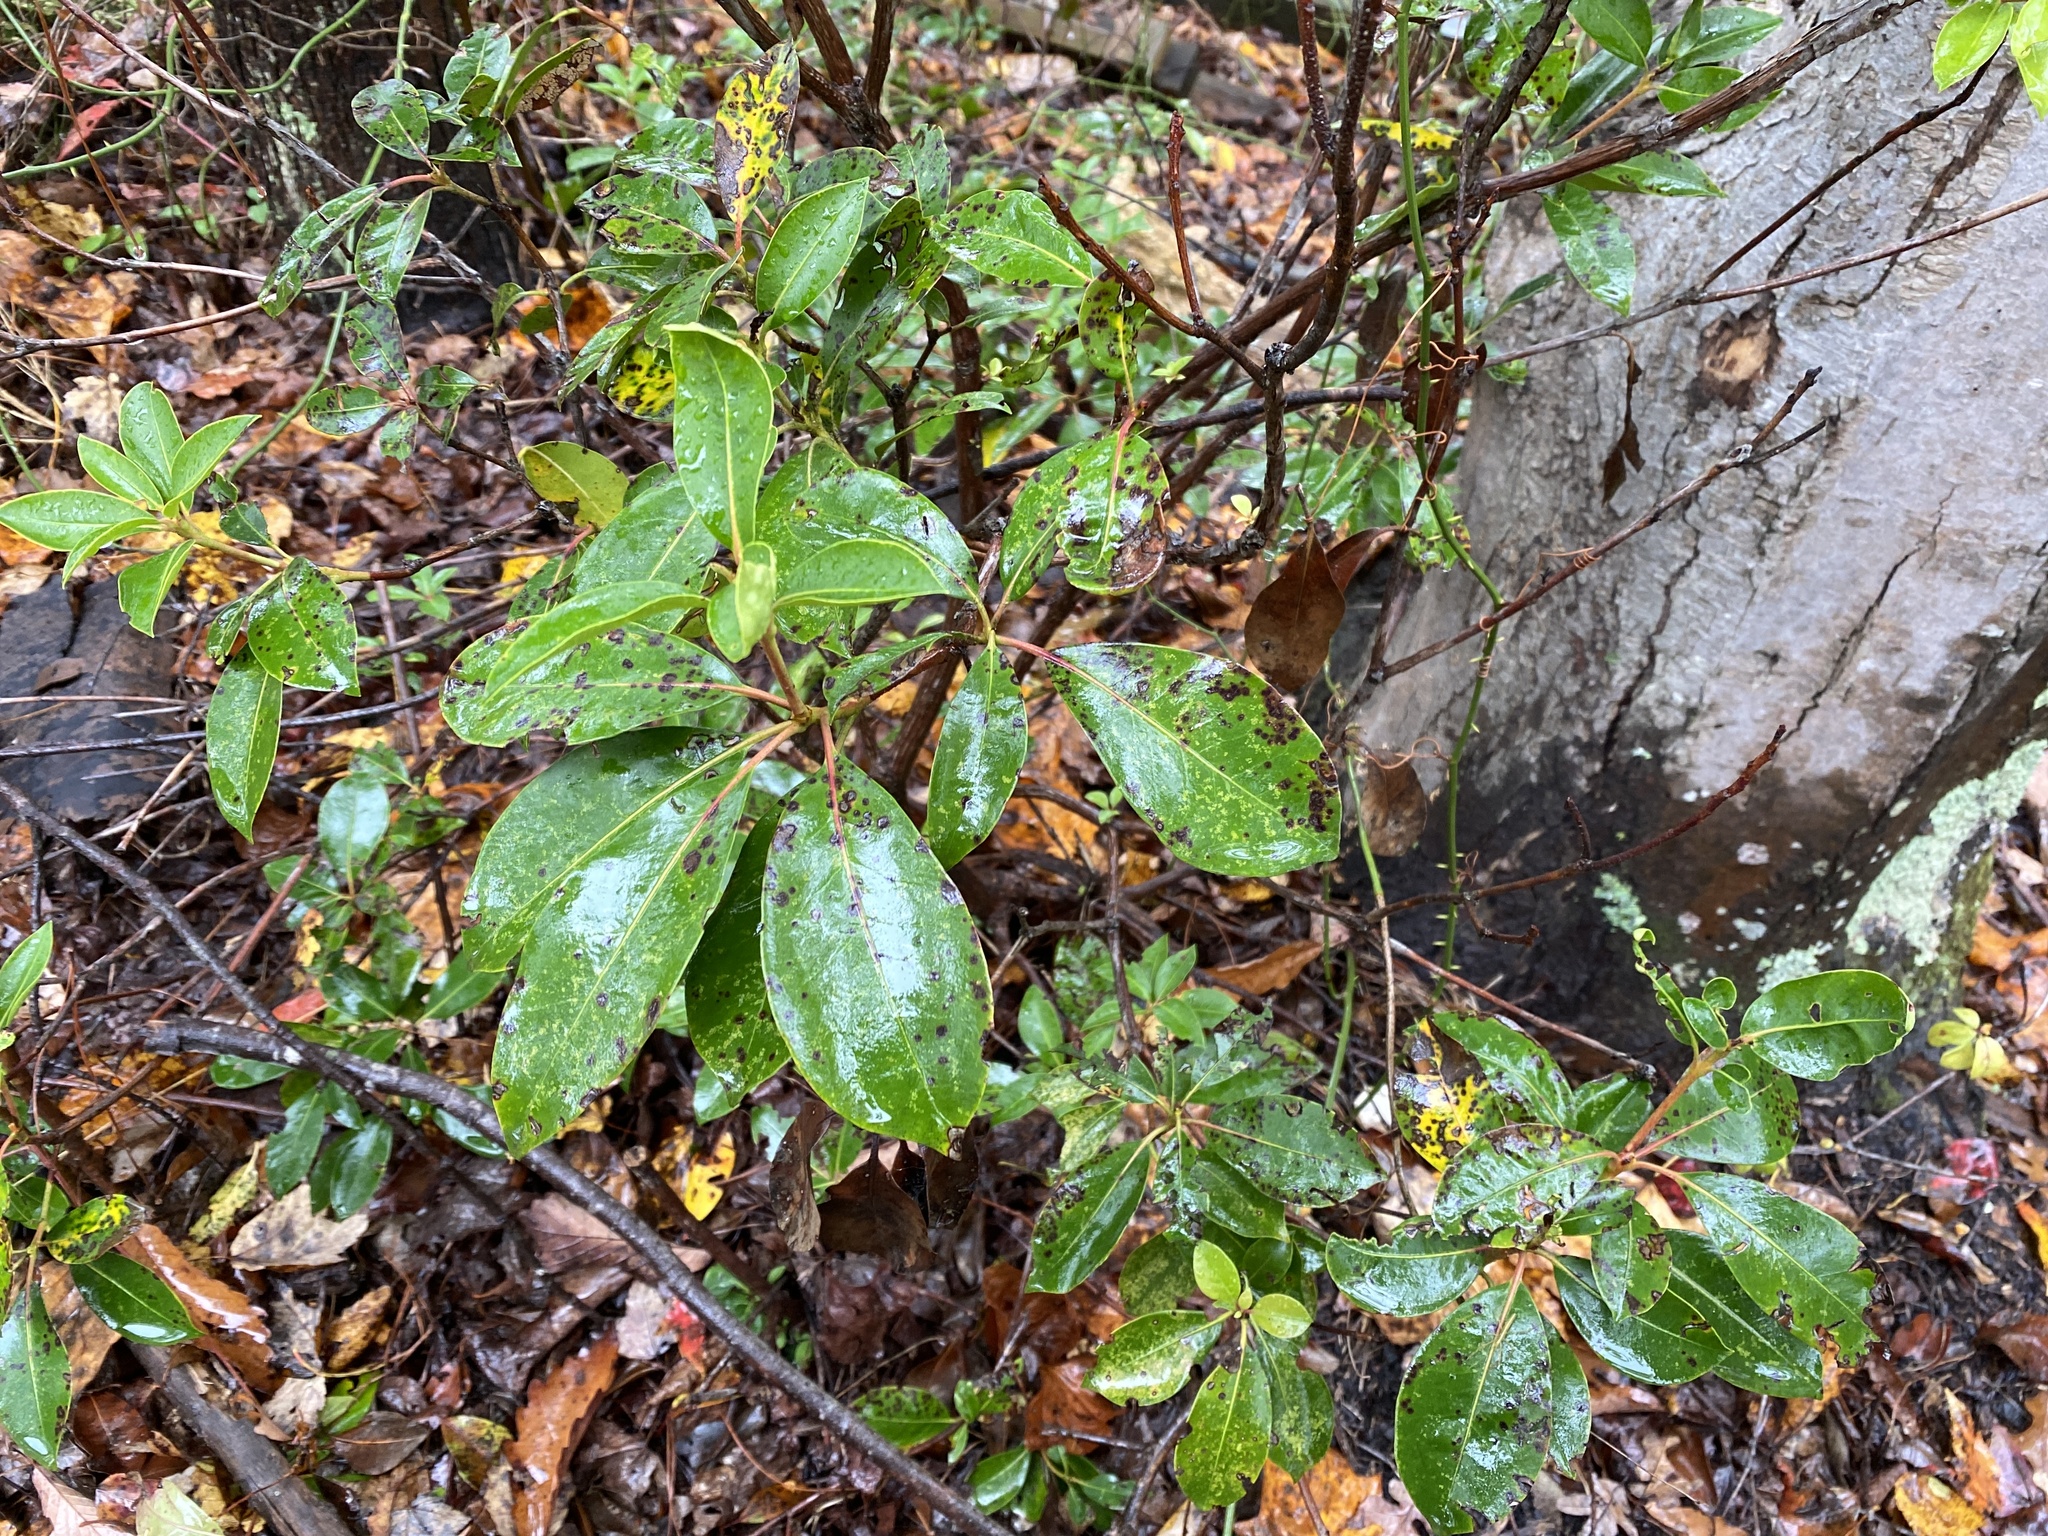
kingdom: Plantae
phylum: Tracheophyta
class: Magnoliopsida
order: Ericales
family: Ericaceae
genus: Kalmia
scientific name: Kalmia latifolia
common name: Mountain-laurel
